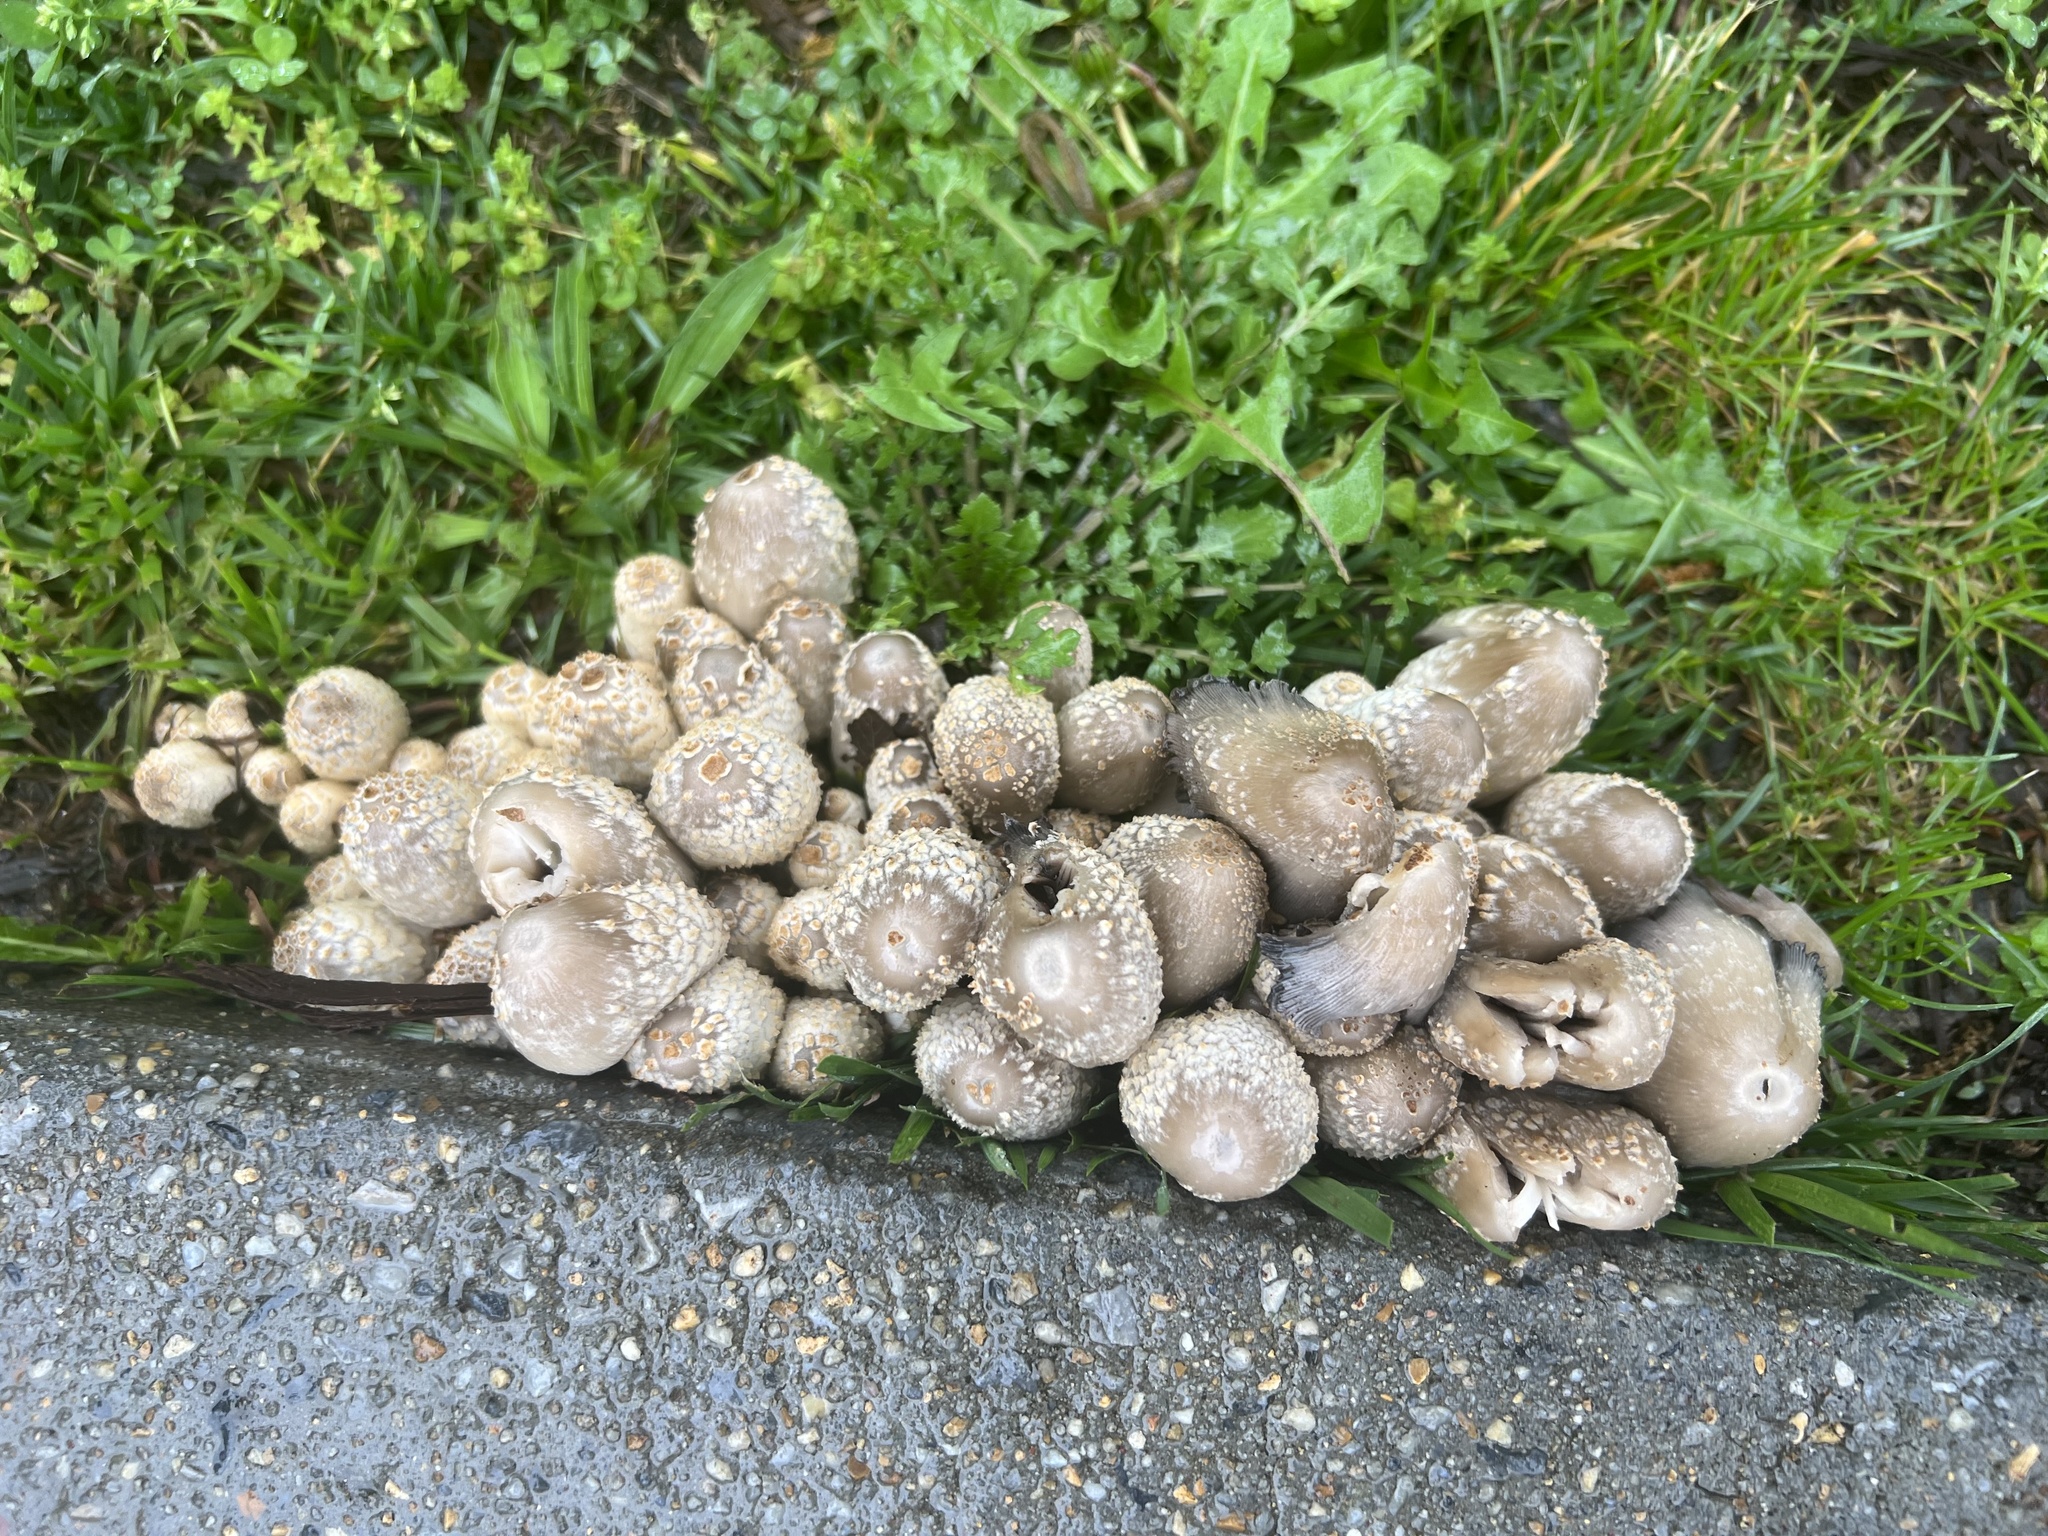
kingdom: Fungi
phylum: Basidiomycota
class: Agaricomycetes
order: Agaricales
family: Psathyrellaceae
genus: Coprinopsis
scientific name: Coprinopsis variegata
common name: Scaly ink cap
